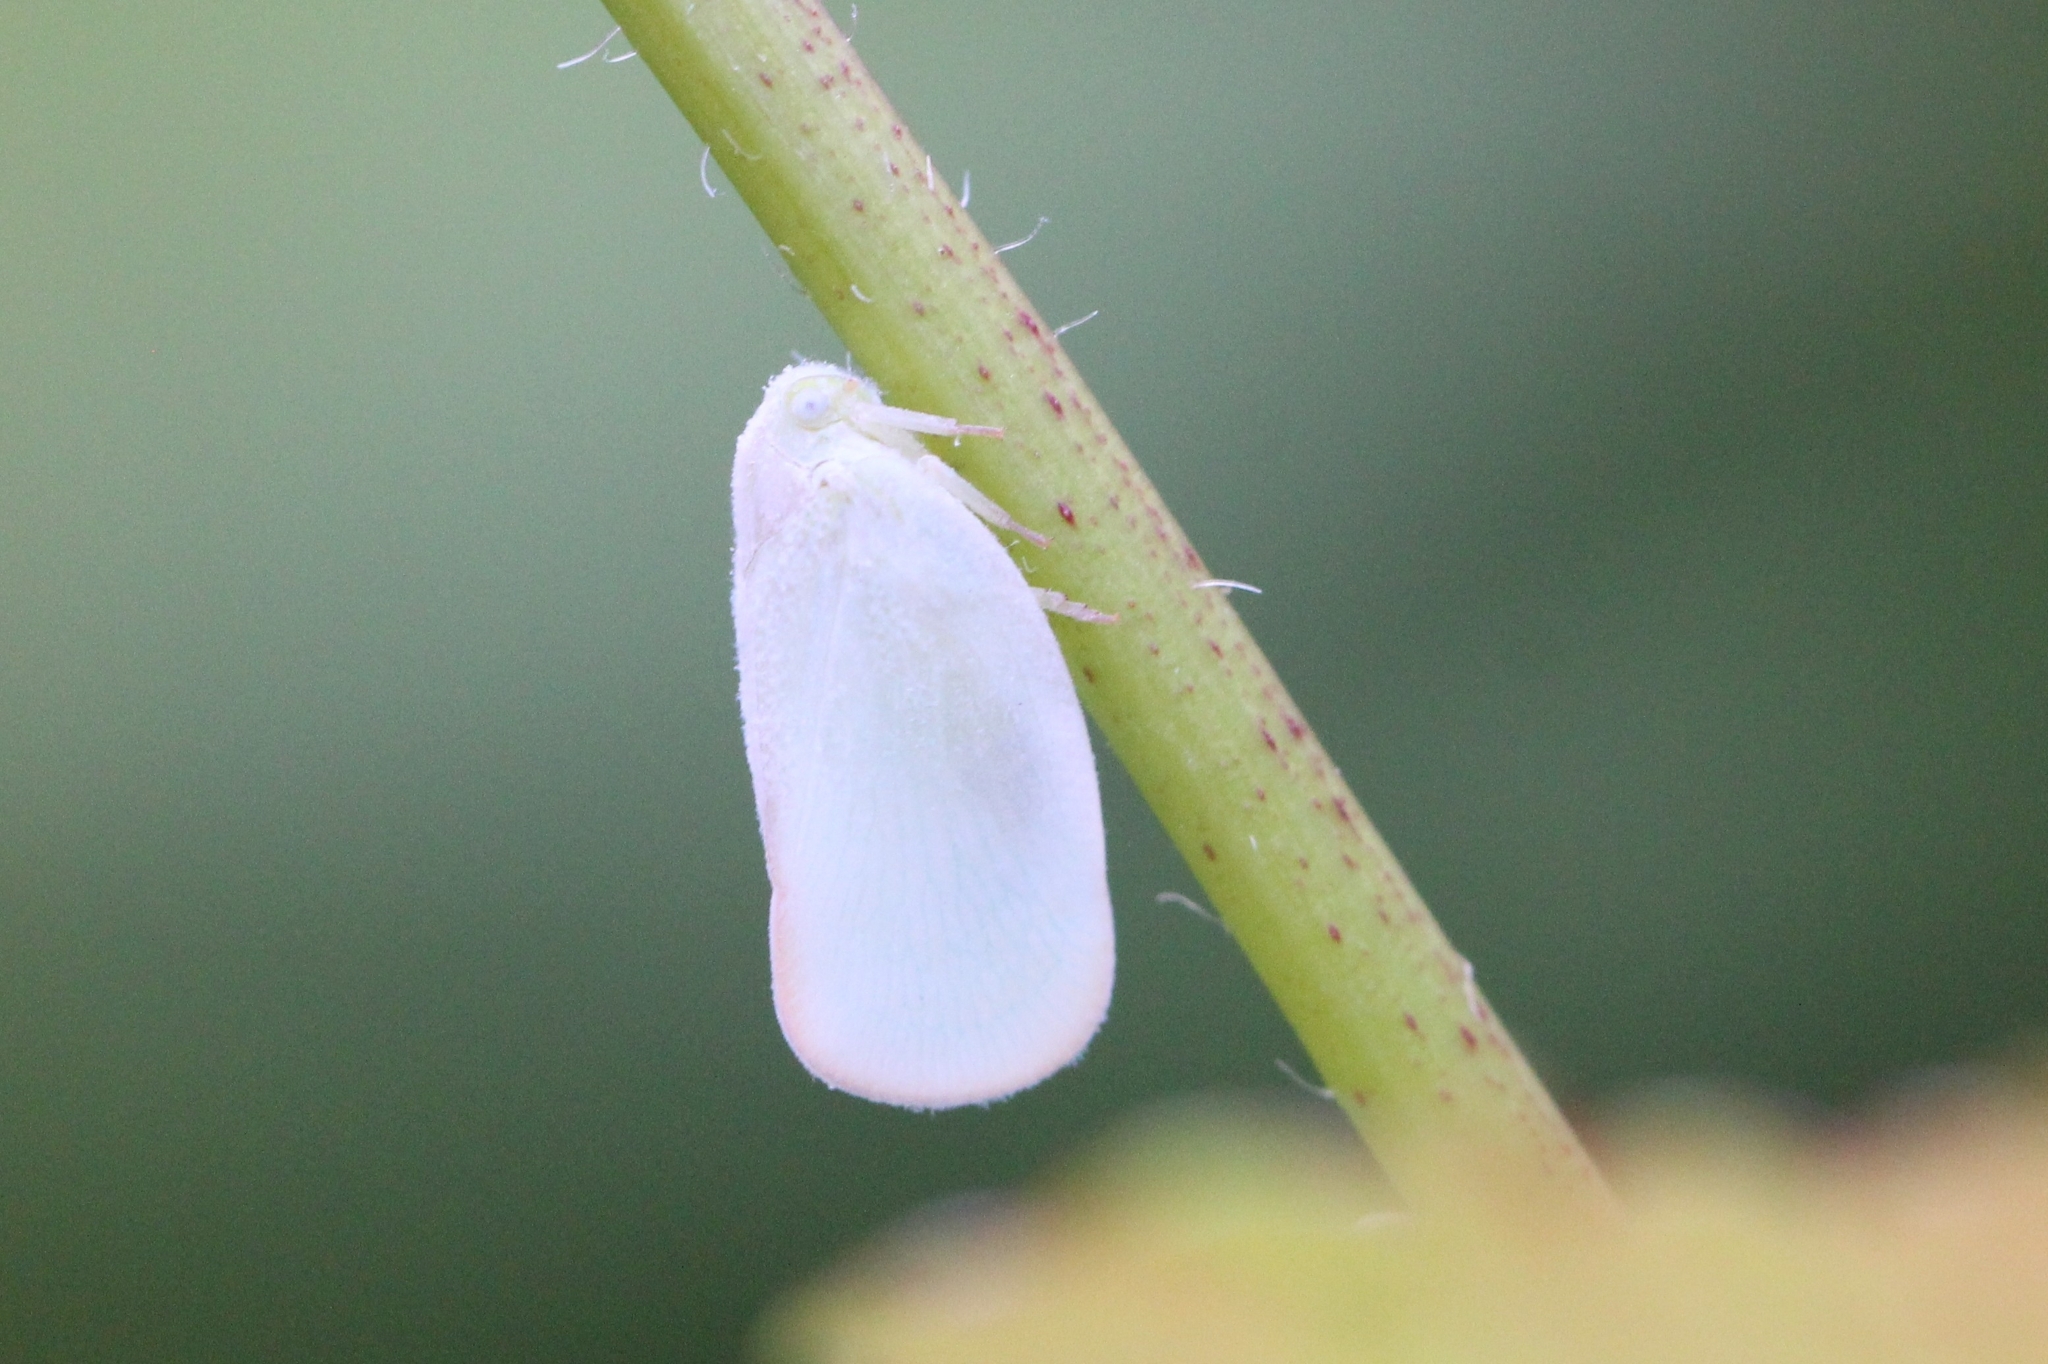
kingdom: Animalia
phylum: Arthropoda
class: Insecta
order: Hemiptera
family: Flatidae
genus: Ormenoides
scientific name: Ormenoides venusta
